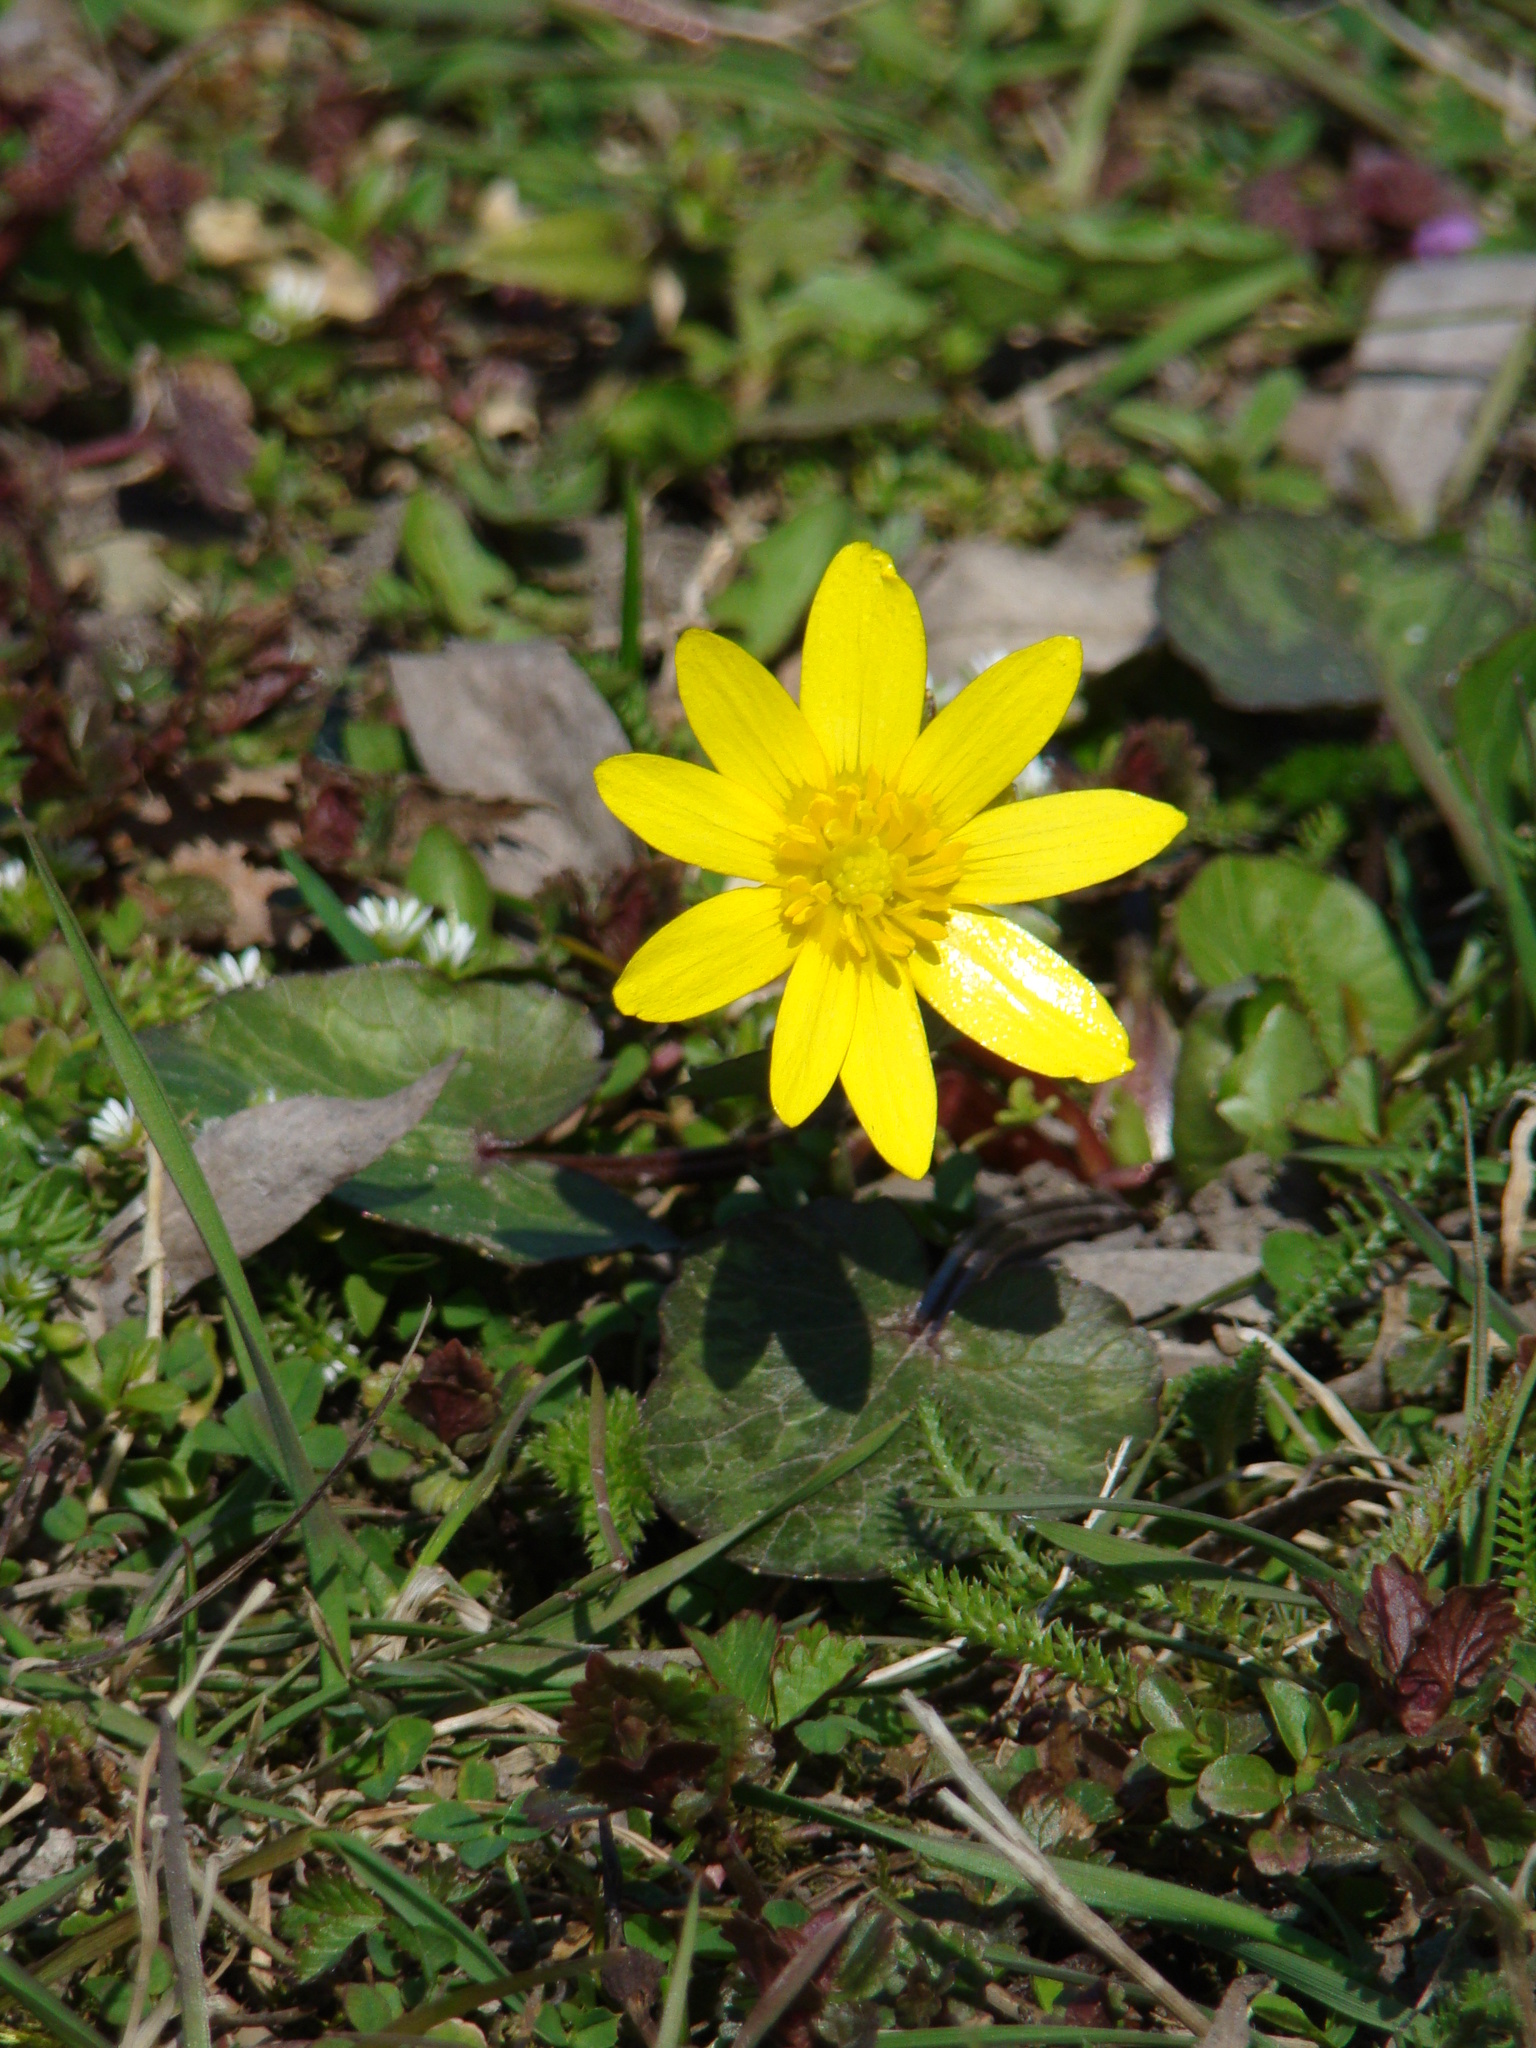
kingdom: Plantae
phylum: Tracheophyta
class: Magnoliopsida
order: Ranunculales
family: Ranunculaceae
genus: Ficaria
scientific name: Ficaria verna
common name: Lesser celandine
